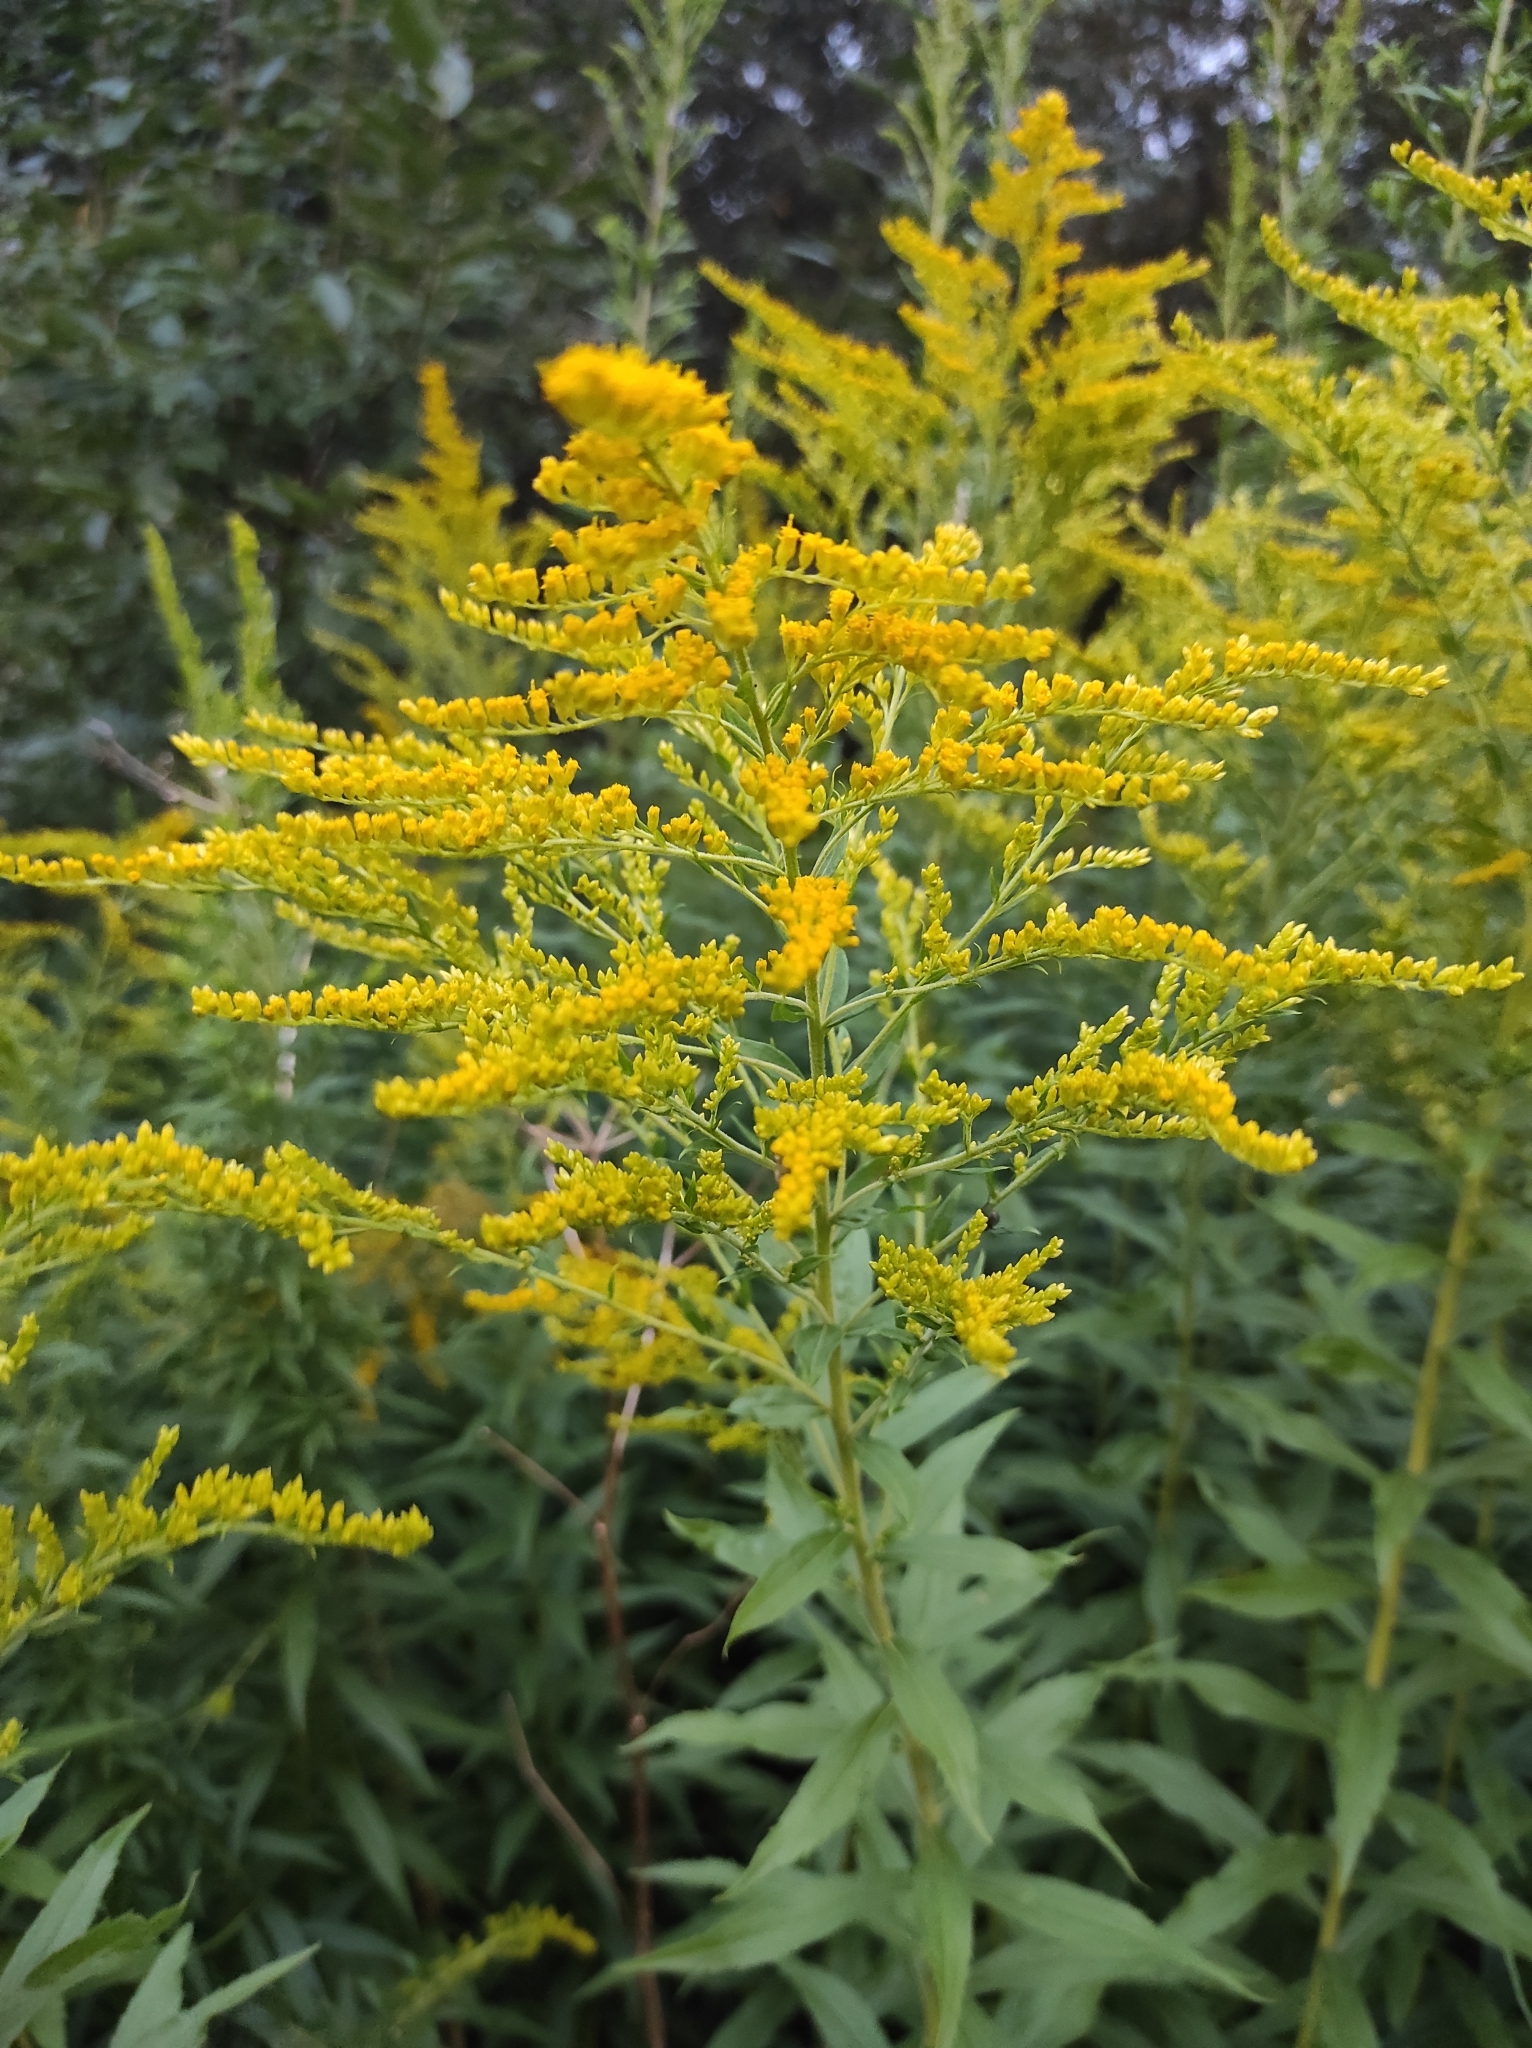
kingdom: Plantae
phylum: Tracheophyta
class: Magnoliopsida
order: Asterales
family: Asteraceae
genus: Solidago
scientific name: Solidago canadensis
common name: Canada goldenrod
